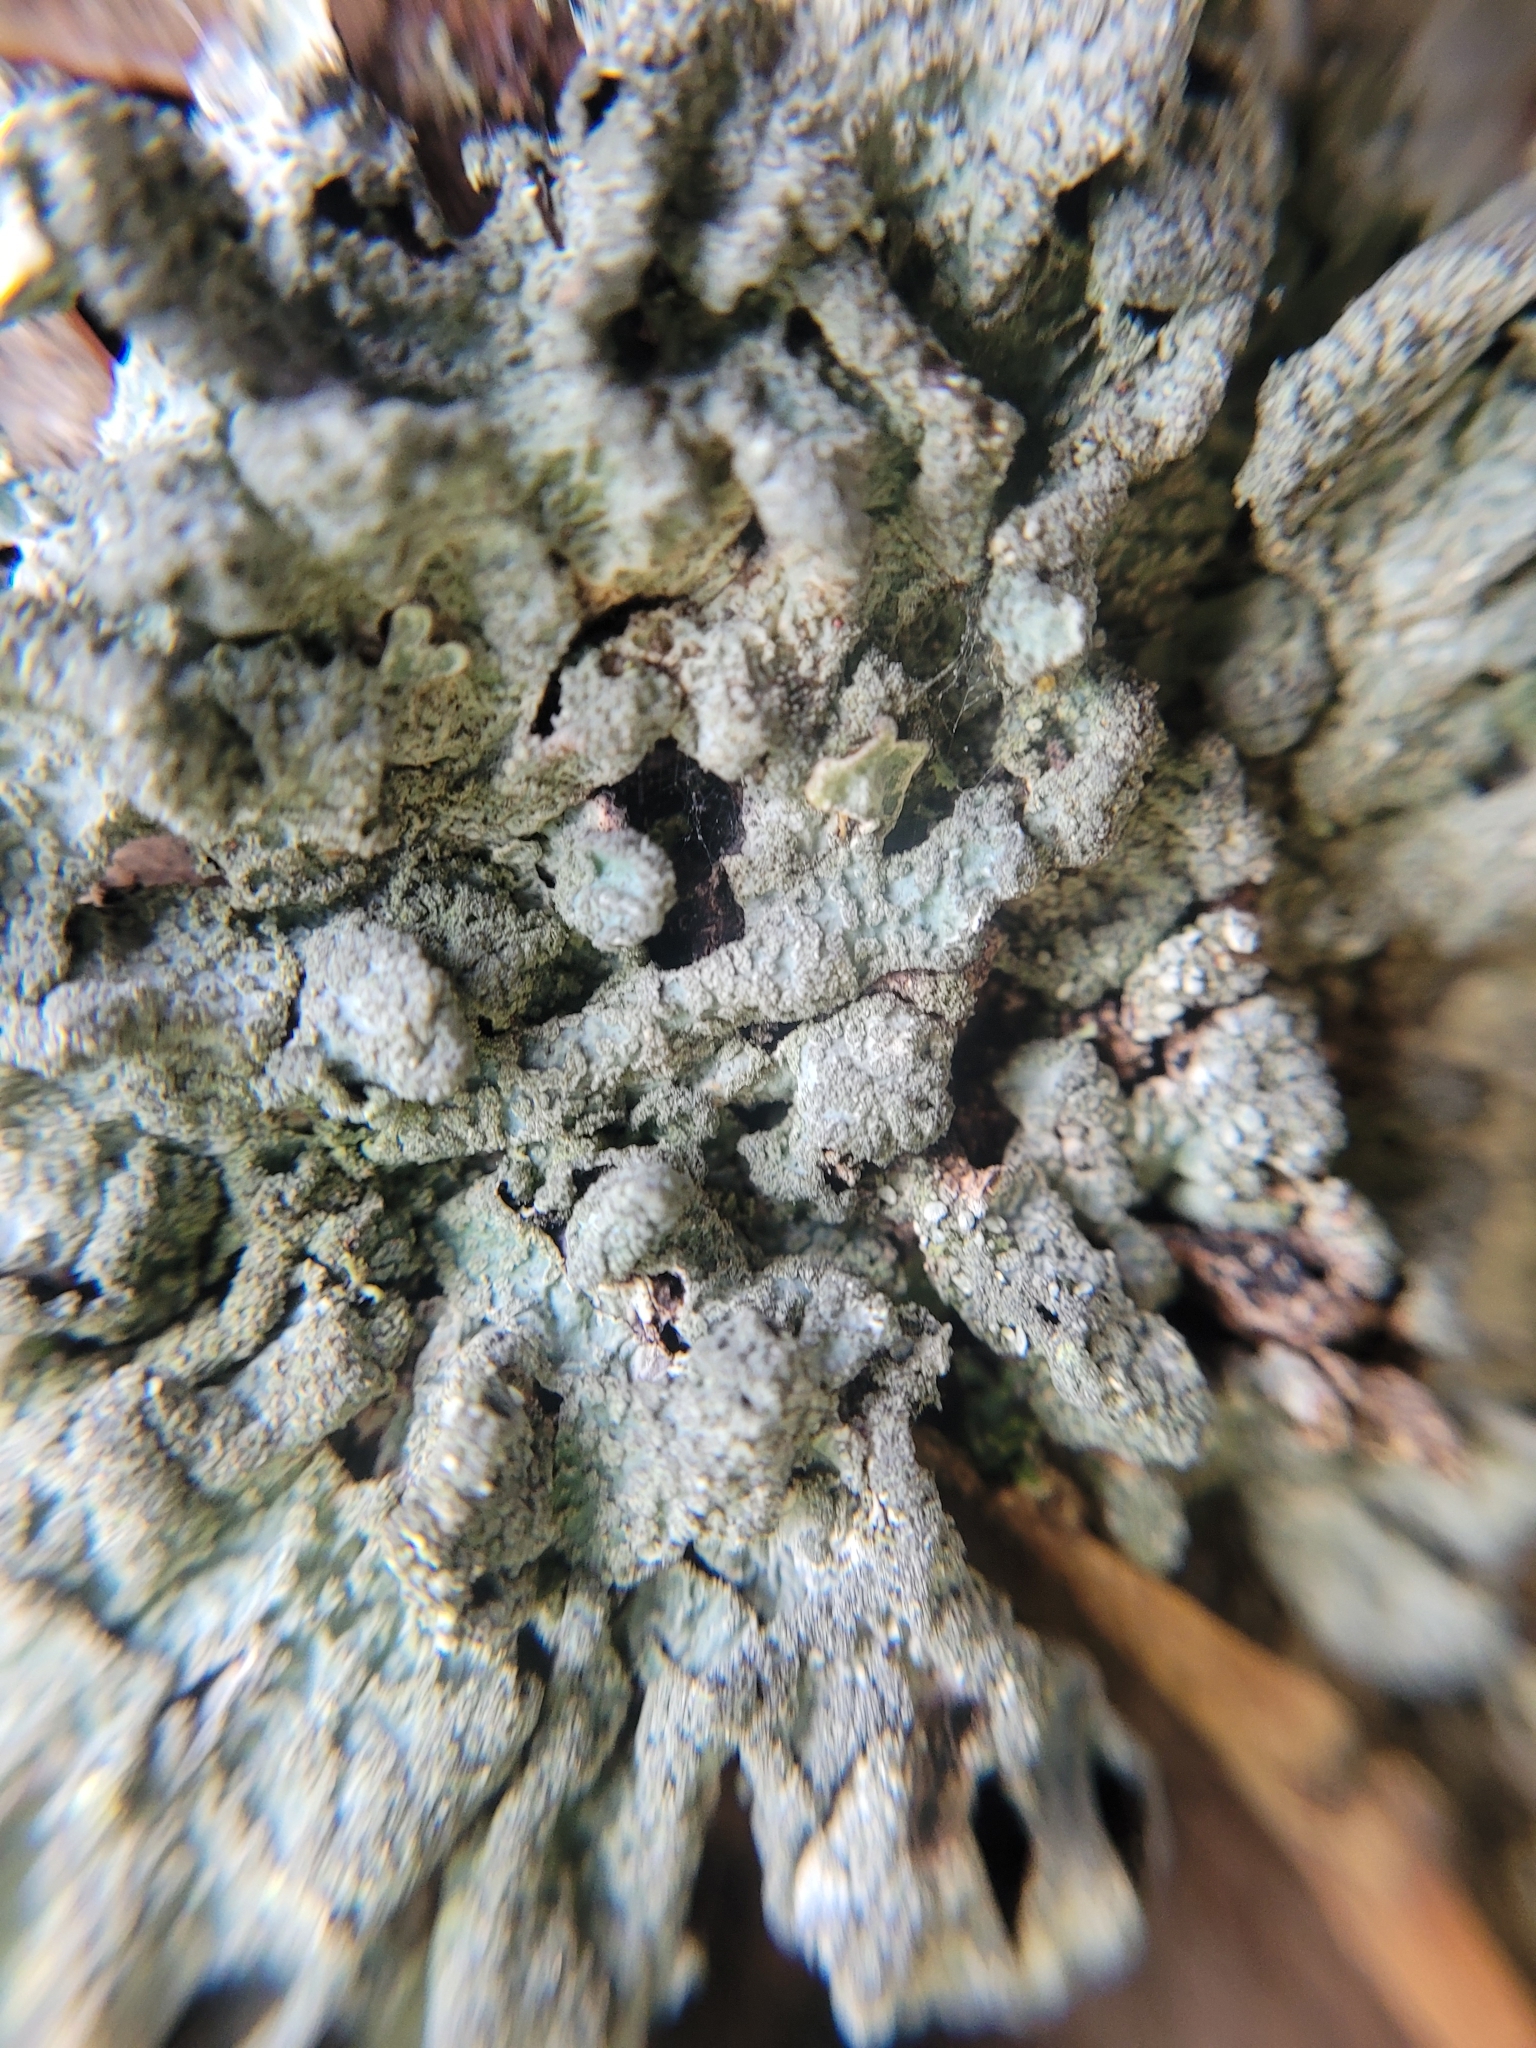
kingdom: Fungi
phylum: Ascomycota
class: Lecanoromycetes
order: Lecanorales
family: Parmeliaceae
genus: Parmelia
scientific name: Parmelia sulcata
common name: Netted shield lichen
